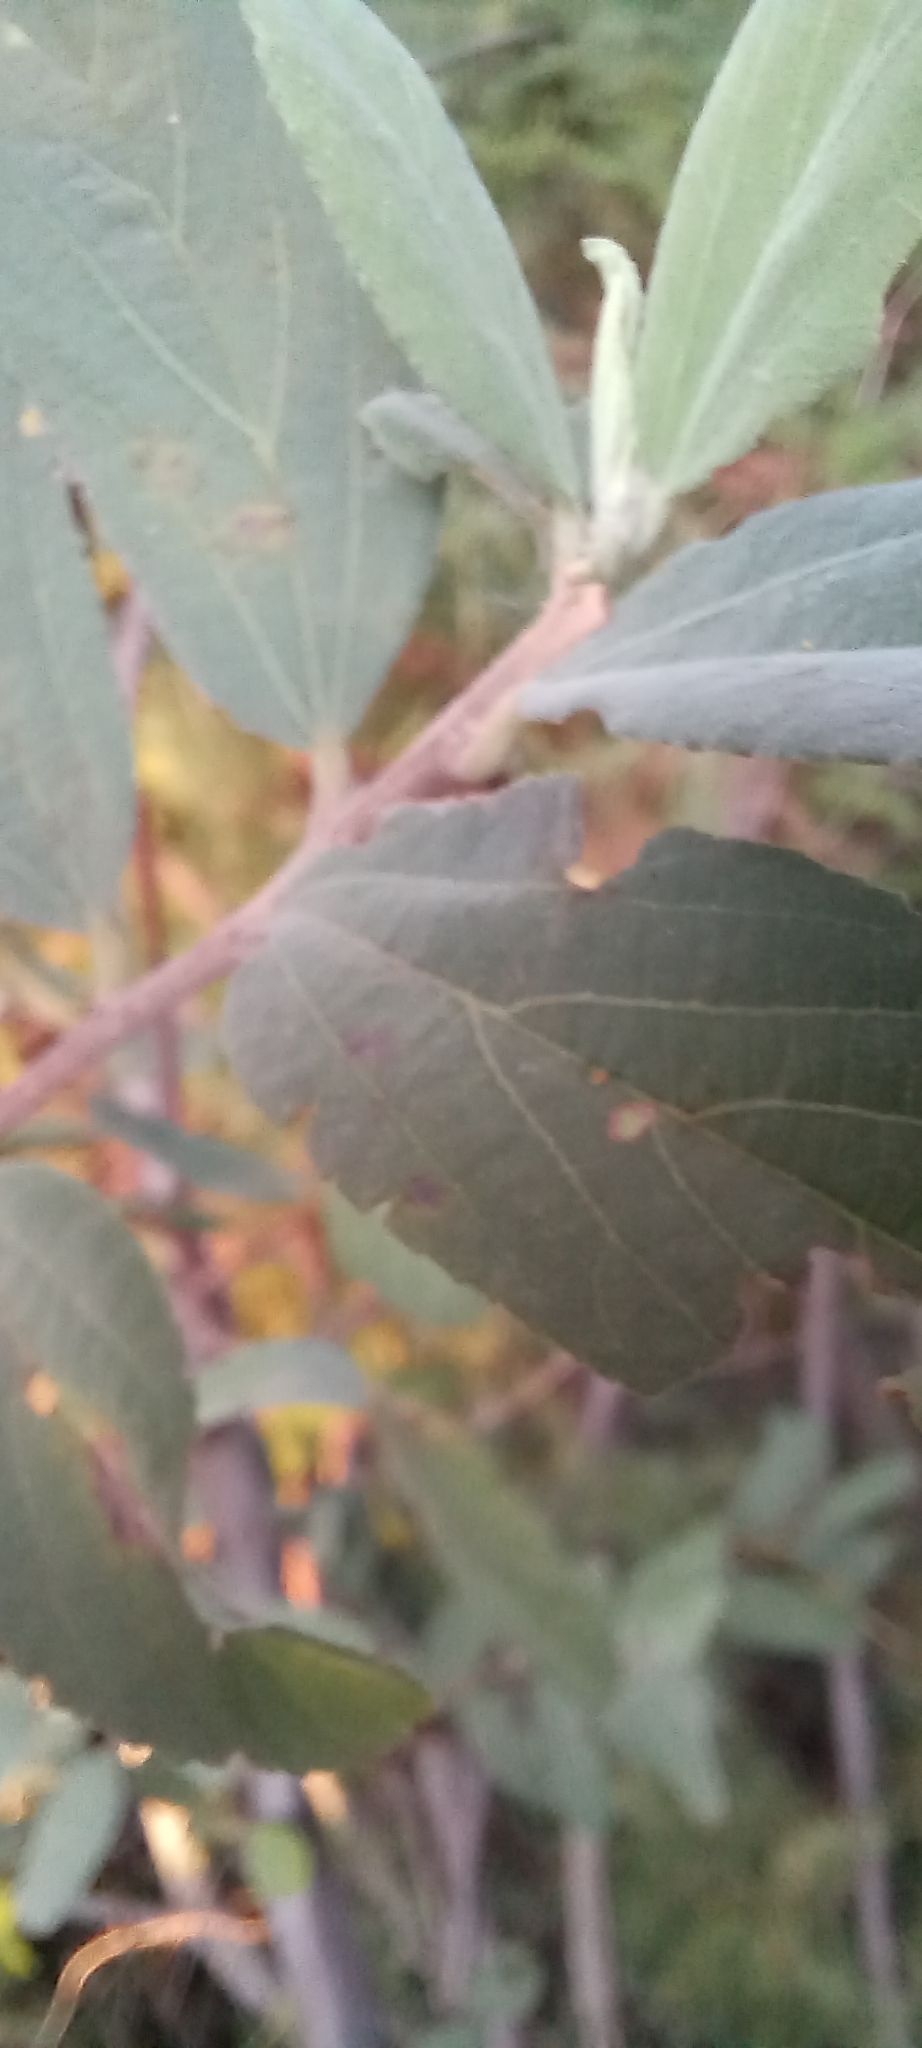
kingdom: Plantae
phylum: Tracheophyta
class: Magnoliopsida
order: Malvales
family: Malvaceae
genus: Grewia
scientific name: Grewia flava
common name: Brandy bush
